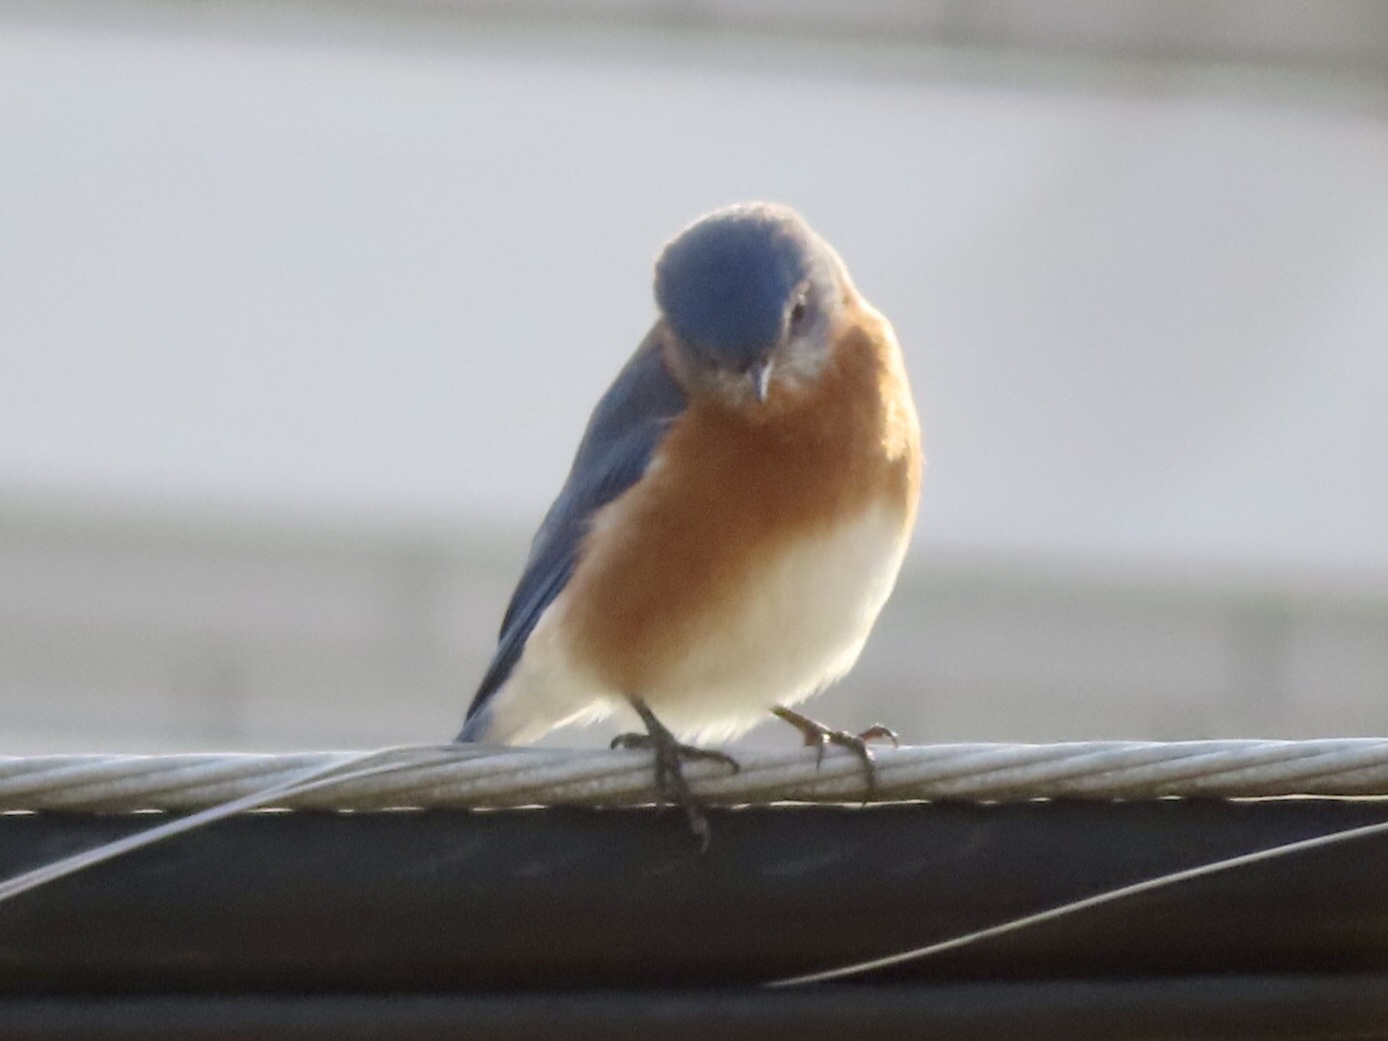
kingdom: Animalia
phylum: Chordata
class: Aves
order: Passeriformes
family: Turdidae
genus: Sialia
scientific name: Sialia sialis
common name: Eastern bluebird
